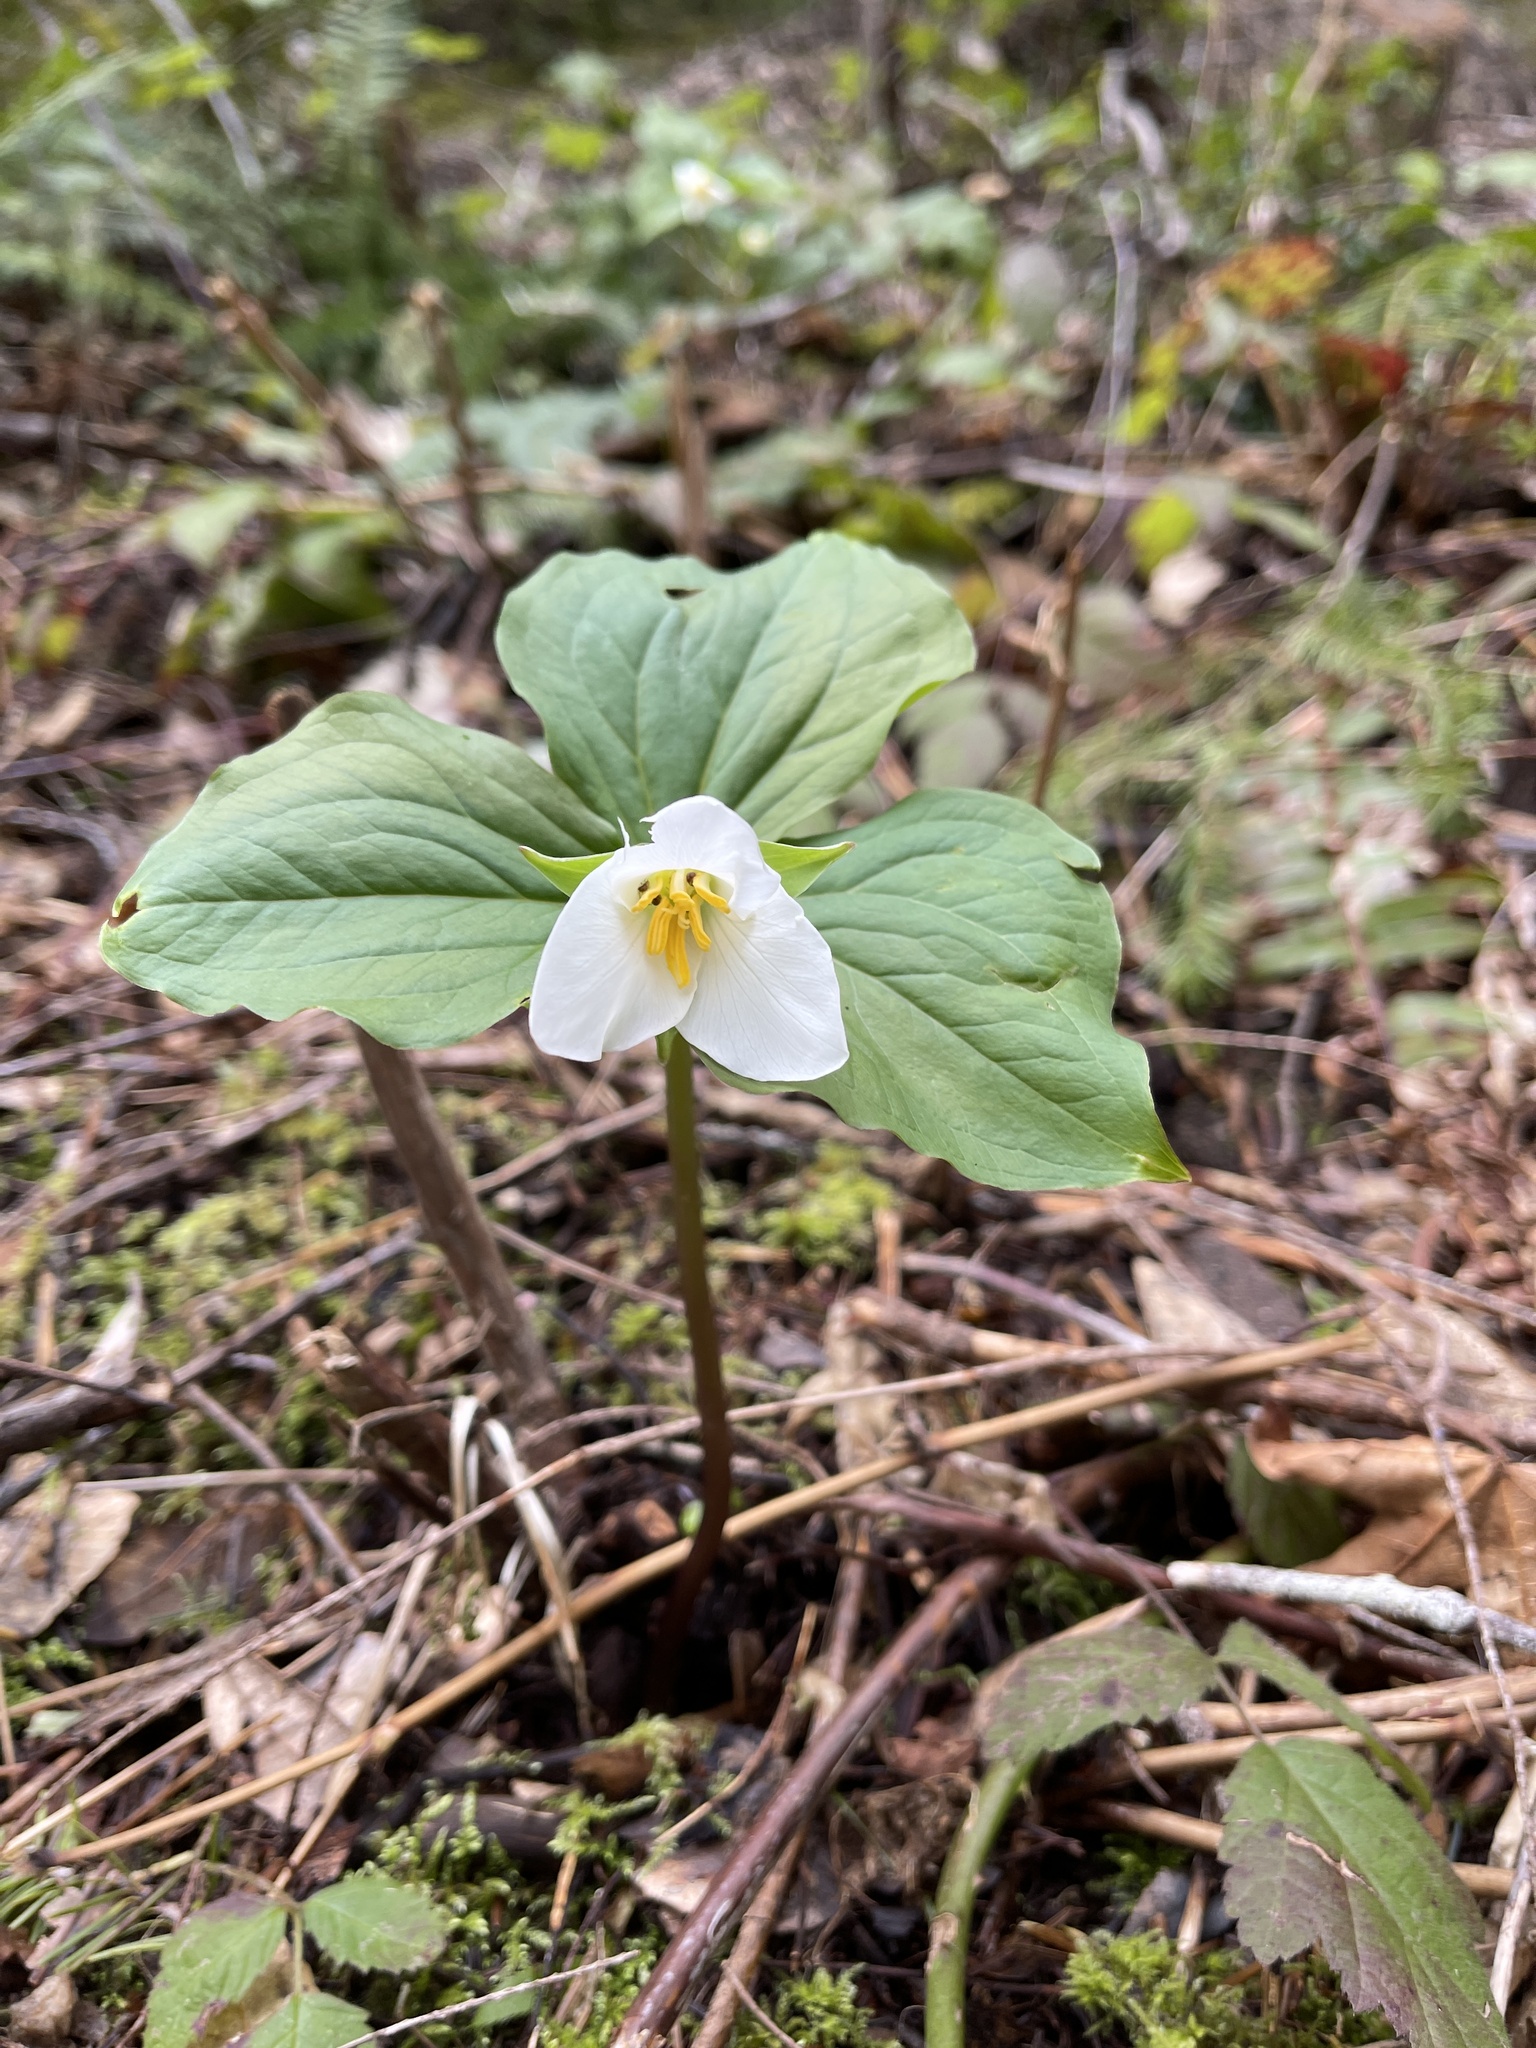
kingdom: Plantae
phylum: Tracheophyta
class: Liliopsida
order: Liliales
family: Melanthiaceae
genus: Trillium
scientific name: Trillium ovatum
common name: Pacific trillium
